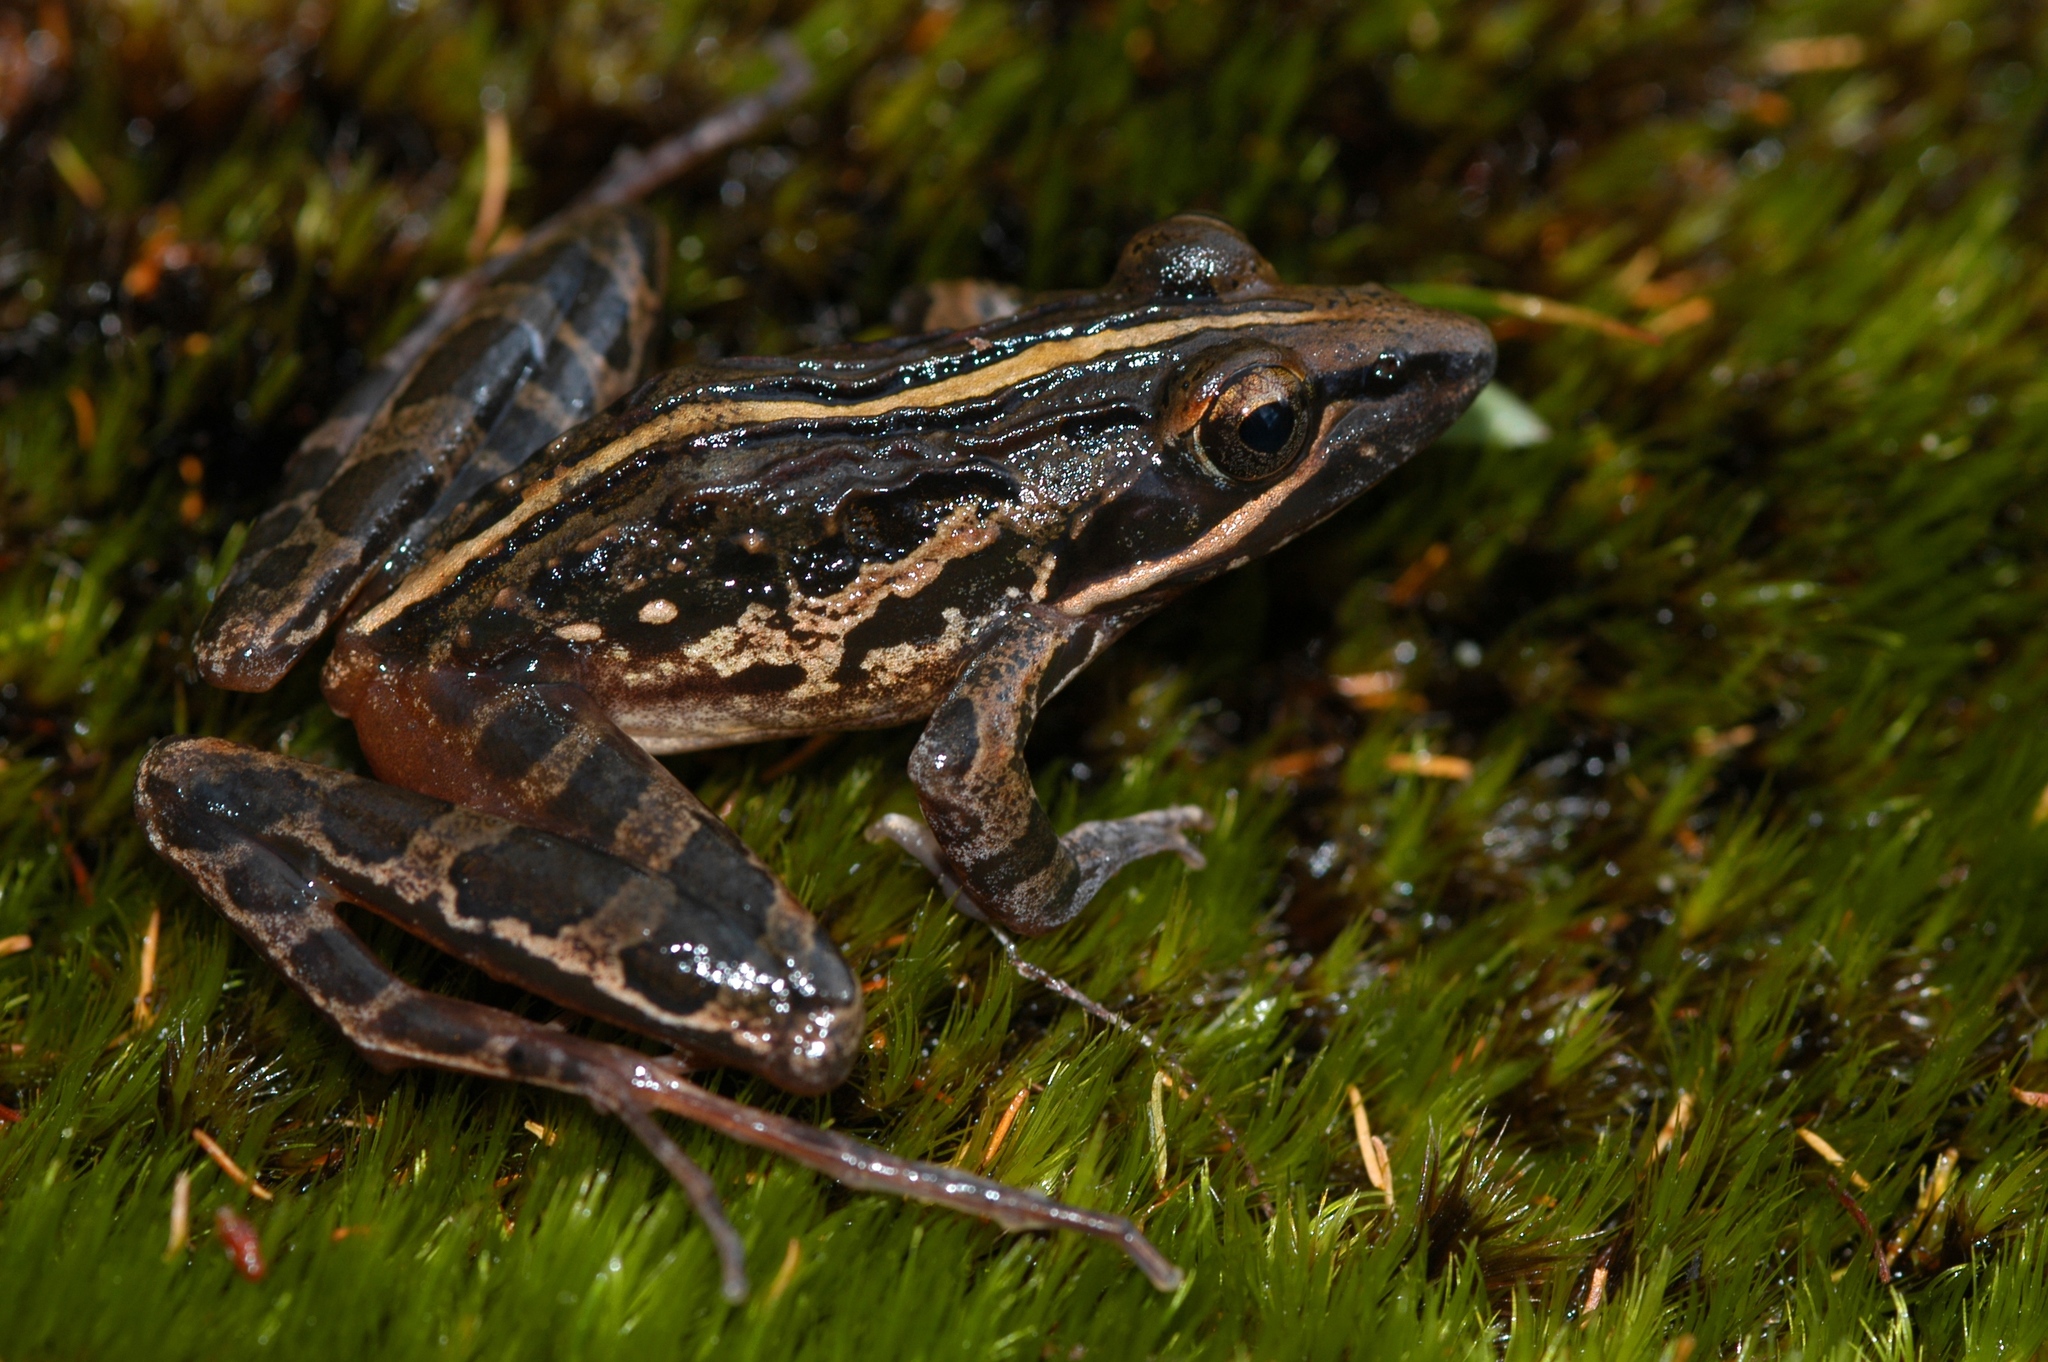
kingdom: Animalia
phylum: Chordata
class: Amphibia
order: Anura
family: Pyxicephalidae
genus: Strongylopus
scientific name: Strongylopus bonaespei
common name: Banded stream frog
